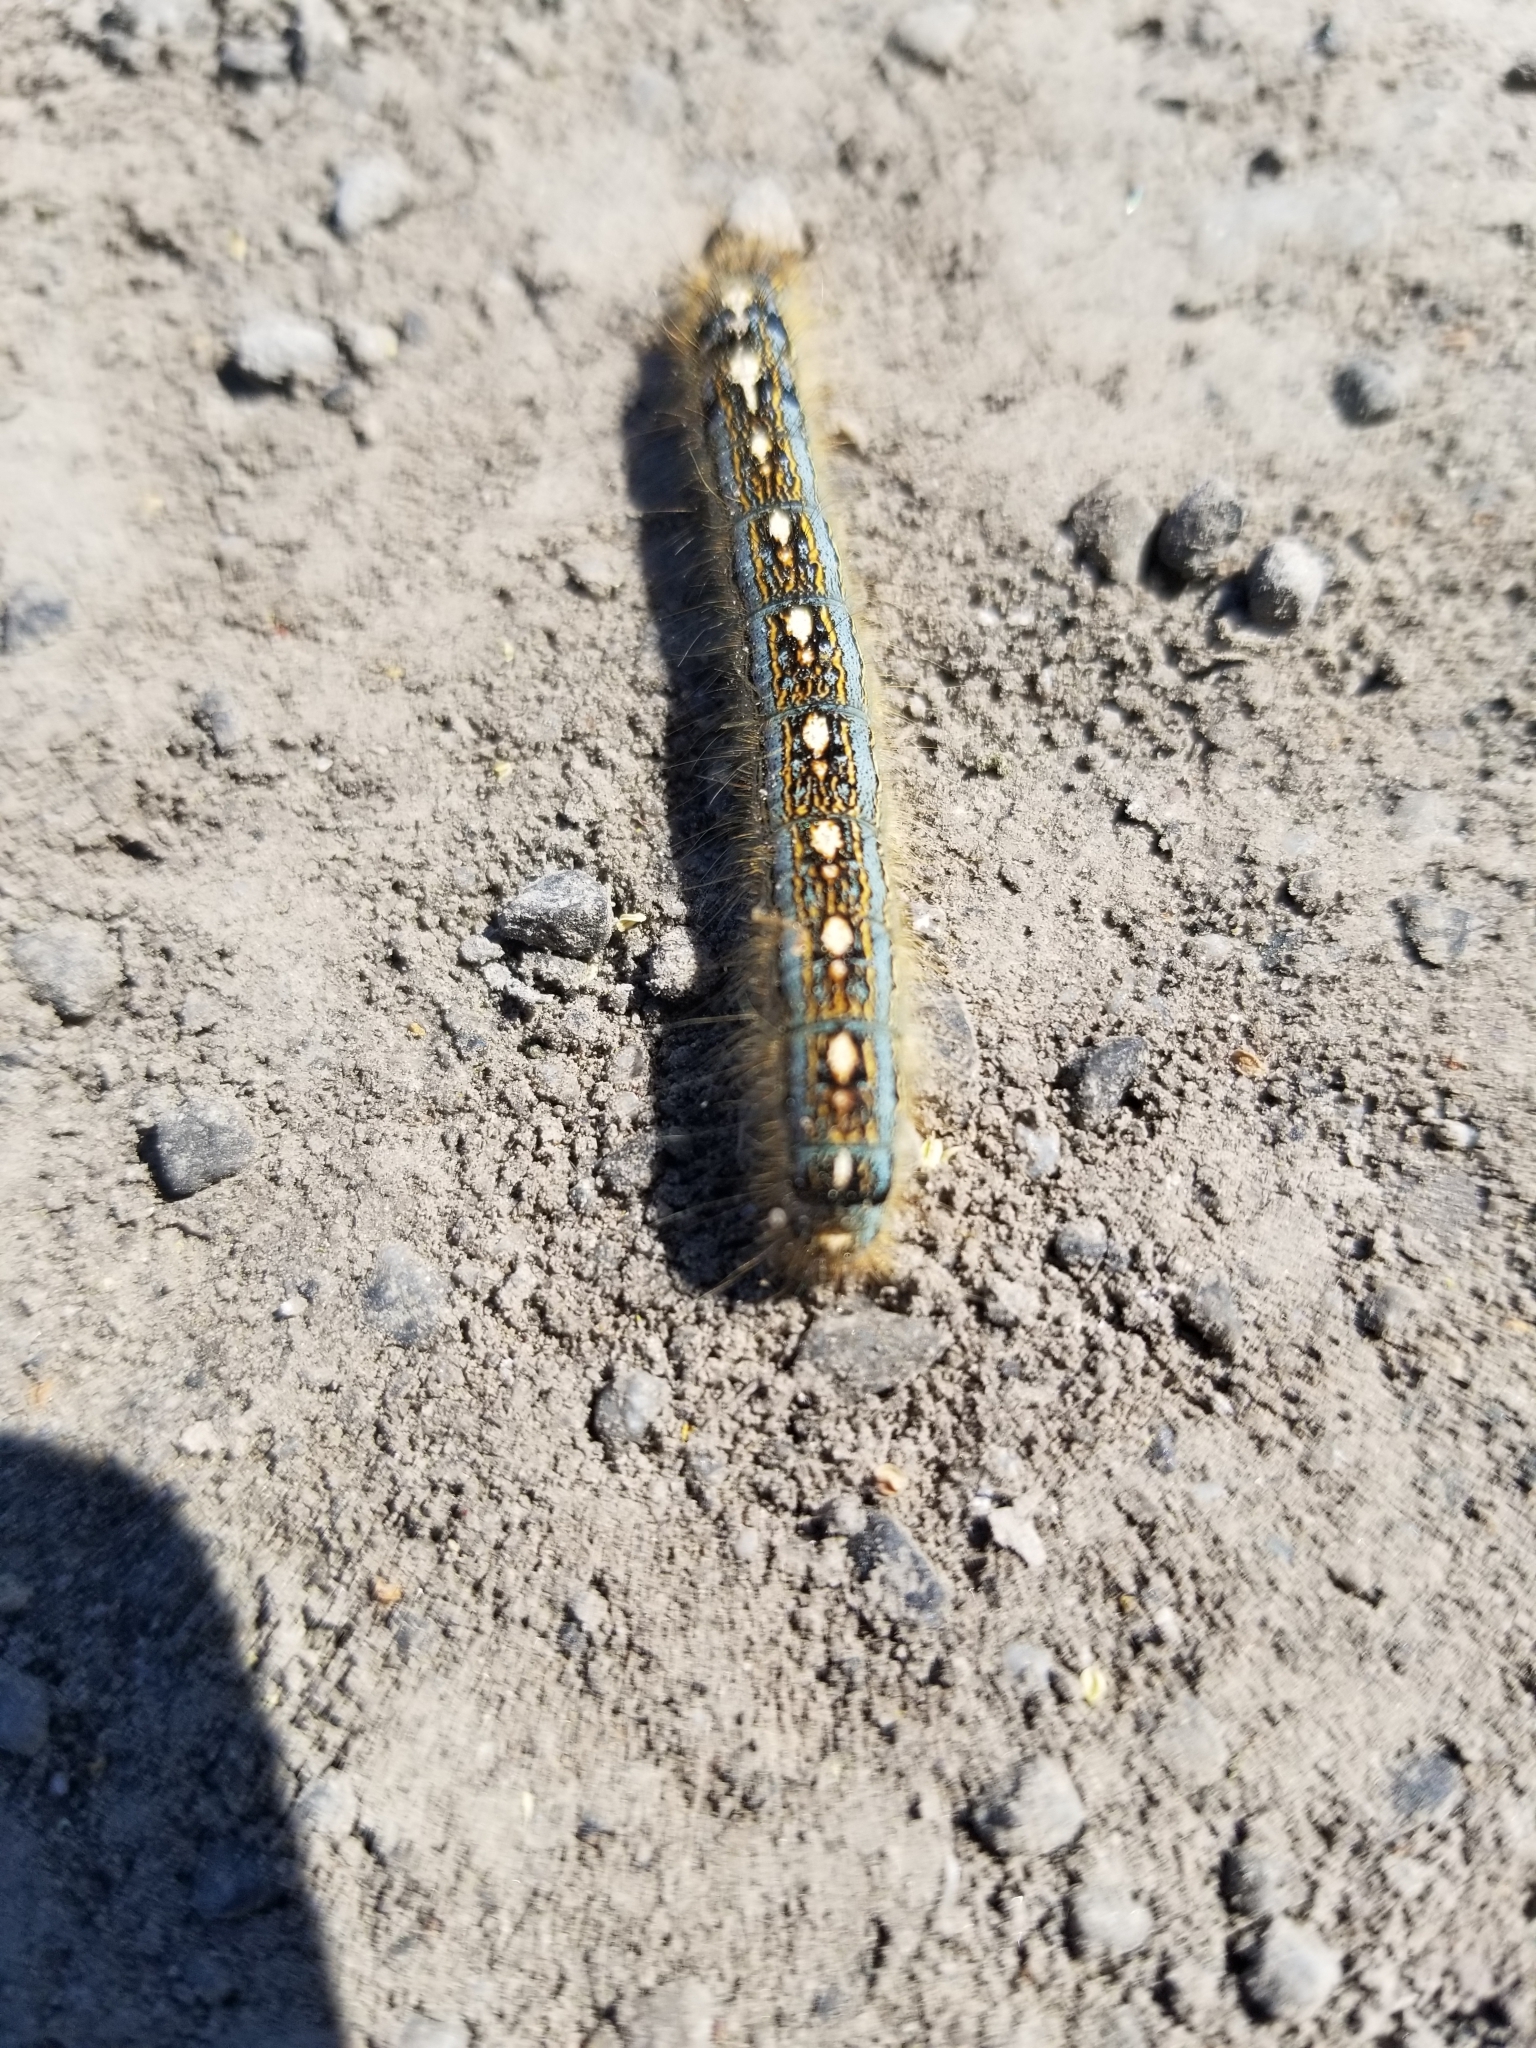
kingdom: Animalia
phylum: Arthropoda
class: Insecta
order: Lepidoptera
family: Lasiocampidae
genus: Malacosoma
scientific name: Malacosoma disstria
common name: Forest tent caterpillar
